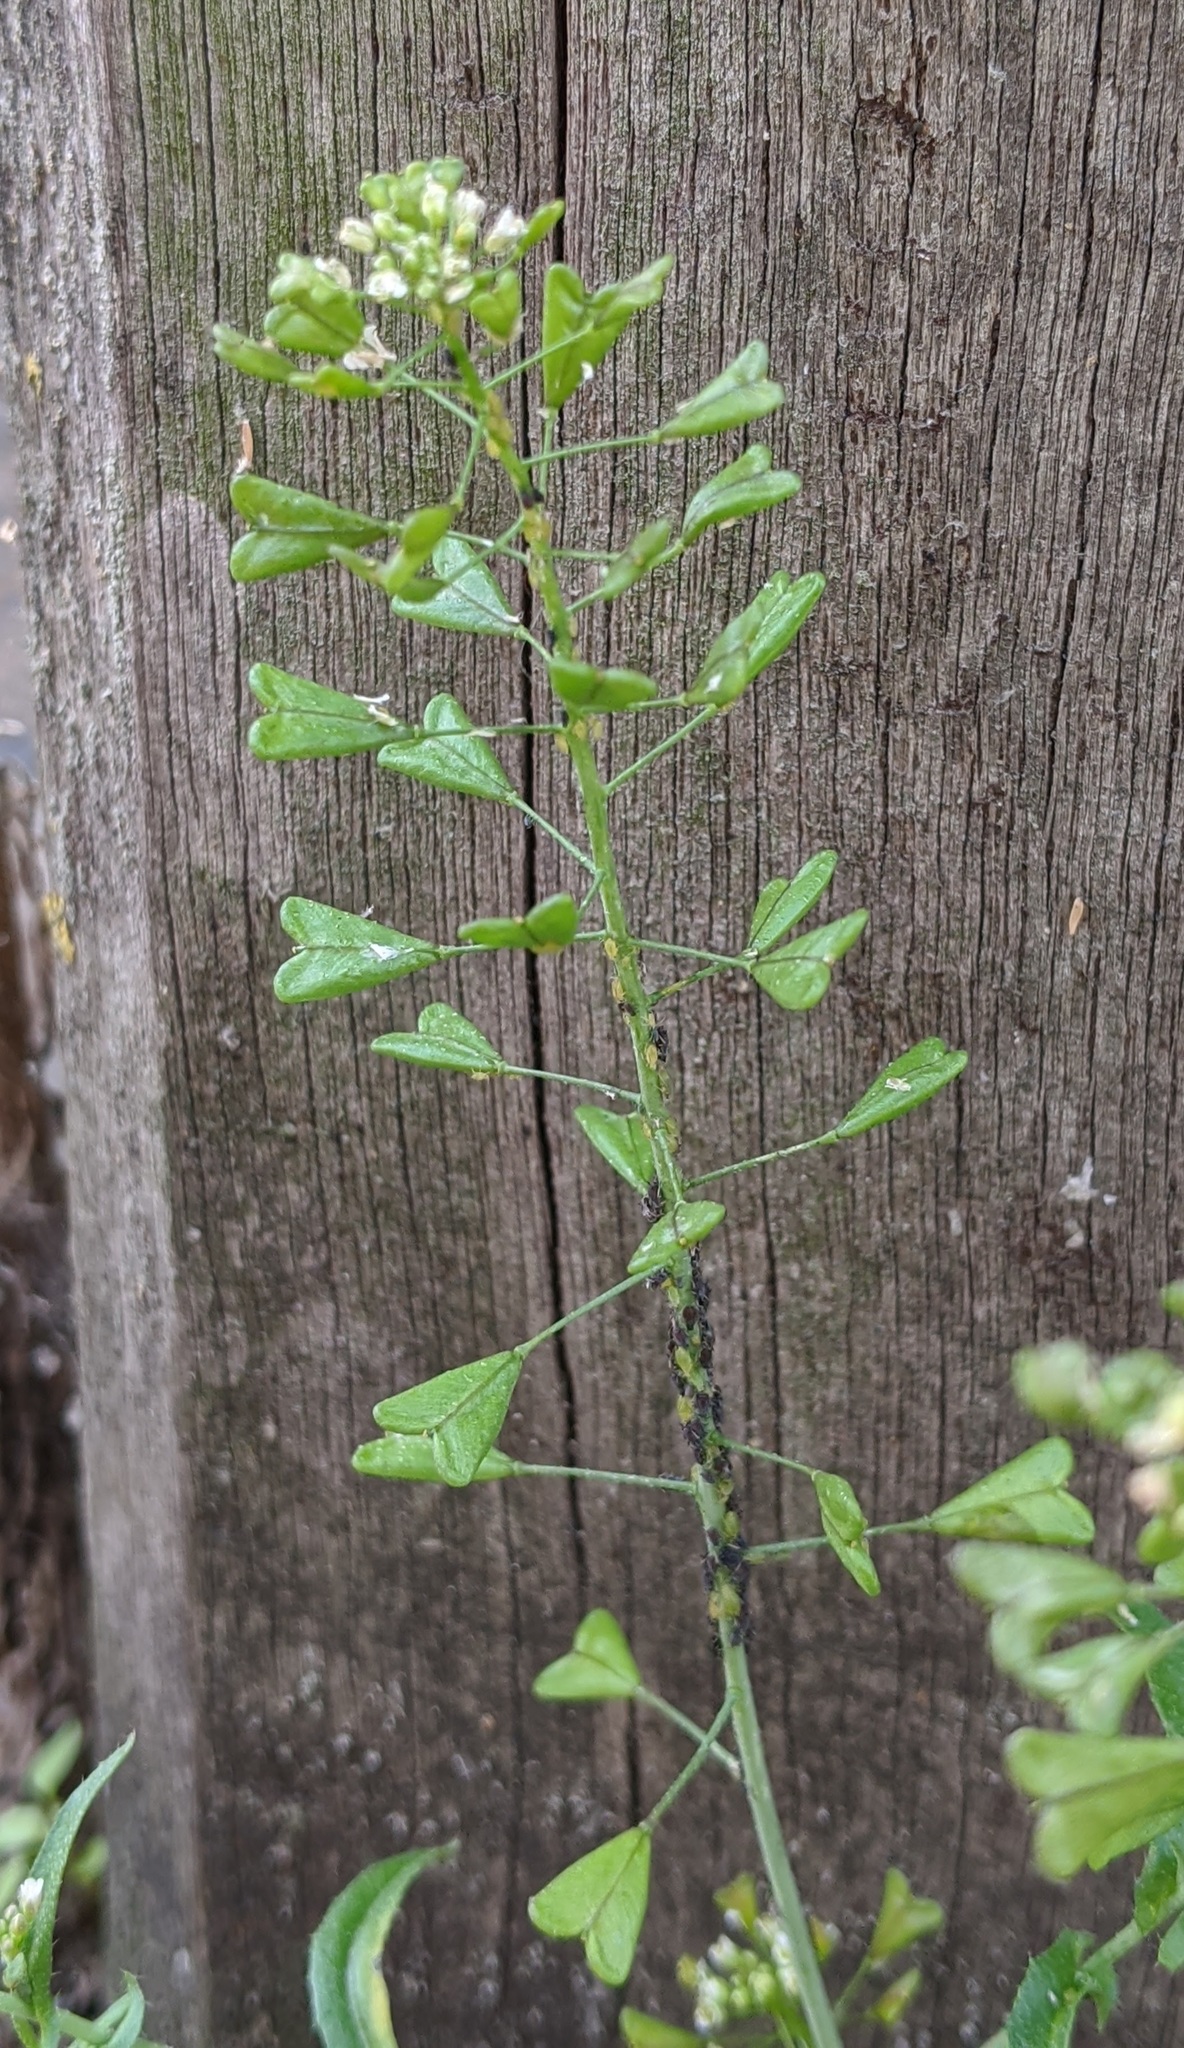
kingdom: Plantae
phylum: Tracheophyta
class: Magnoliopsida
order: Brassicales
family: Brassicaceae
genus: Capsella
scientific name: Capsella bursa-pastoris
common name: Shepherd's purse
